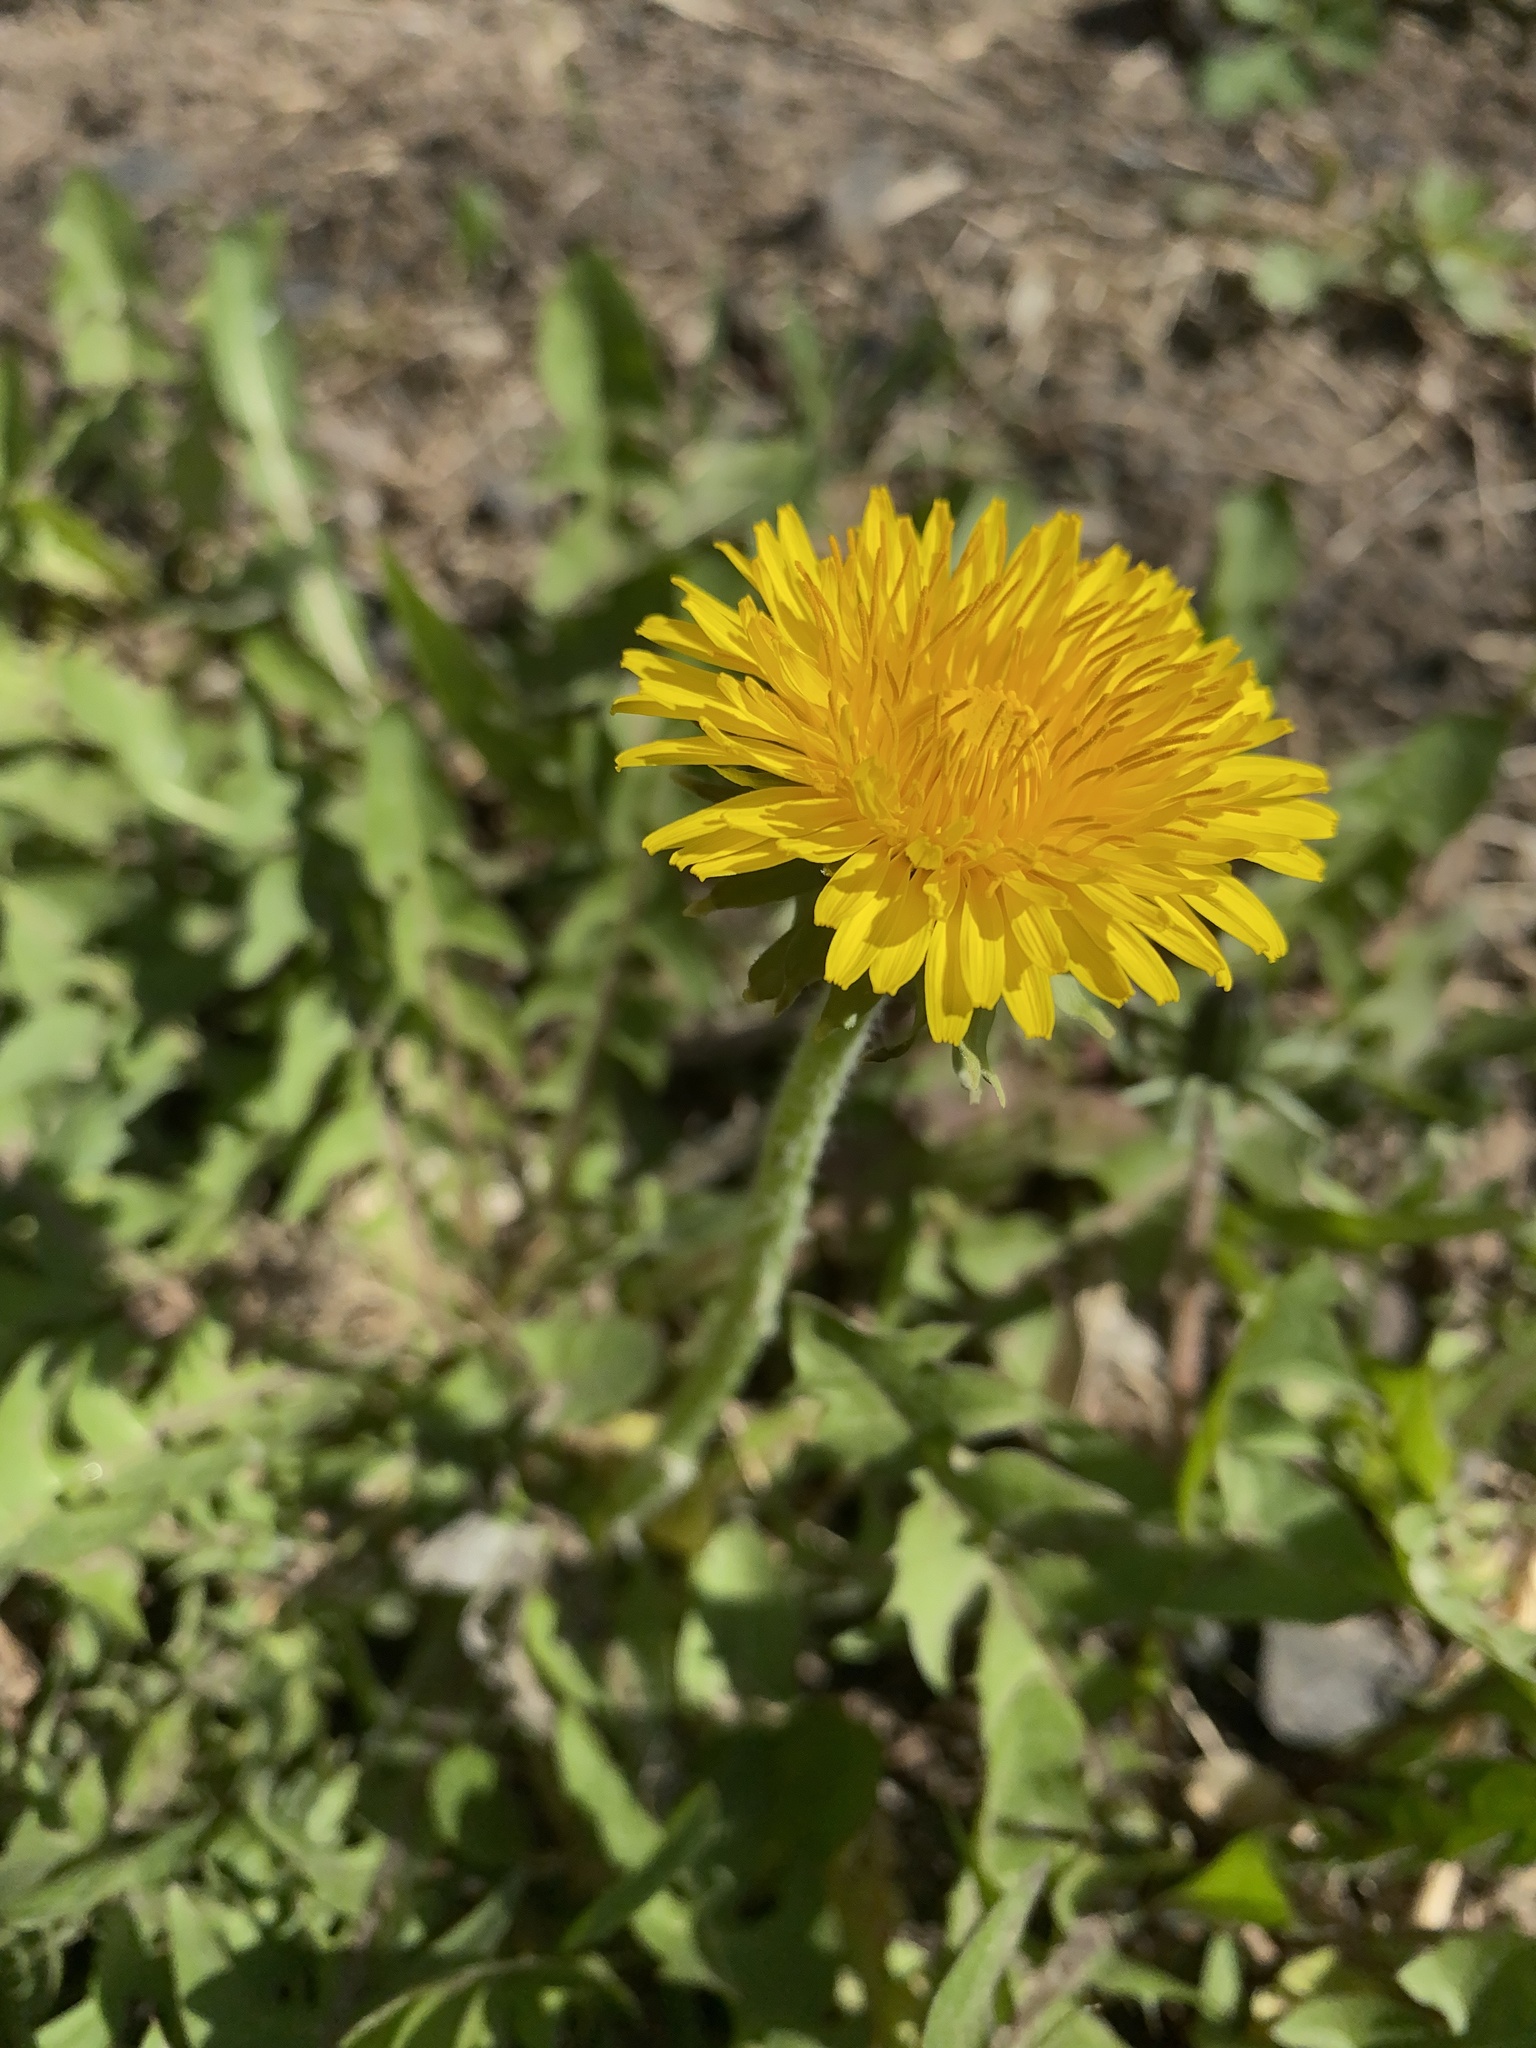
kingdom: Plantae
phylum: Tracheophyta
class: Magnoliopsida
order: Asterales
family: Asteraceae
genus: Taraxacum
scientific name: Taraxacum officinale
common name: Common dandelion
